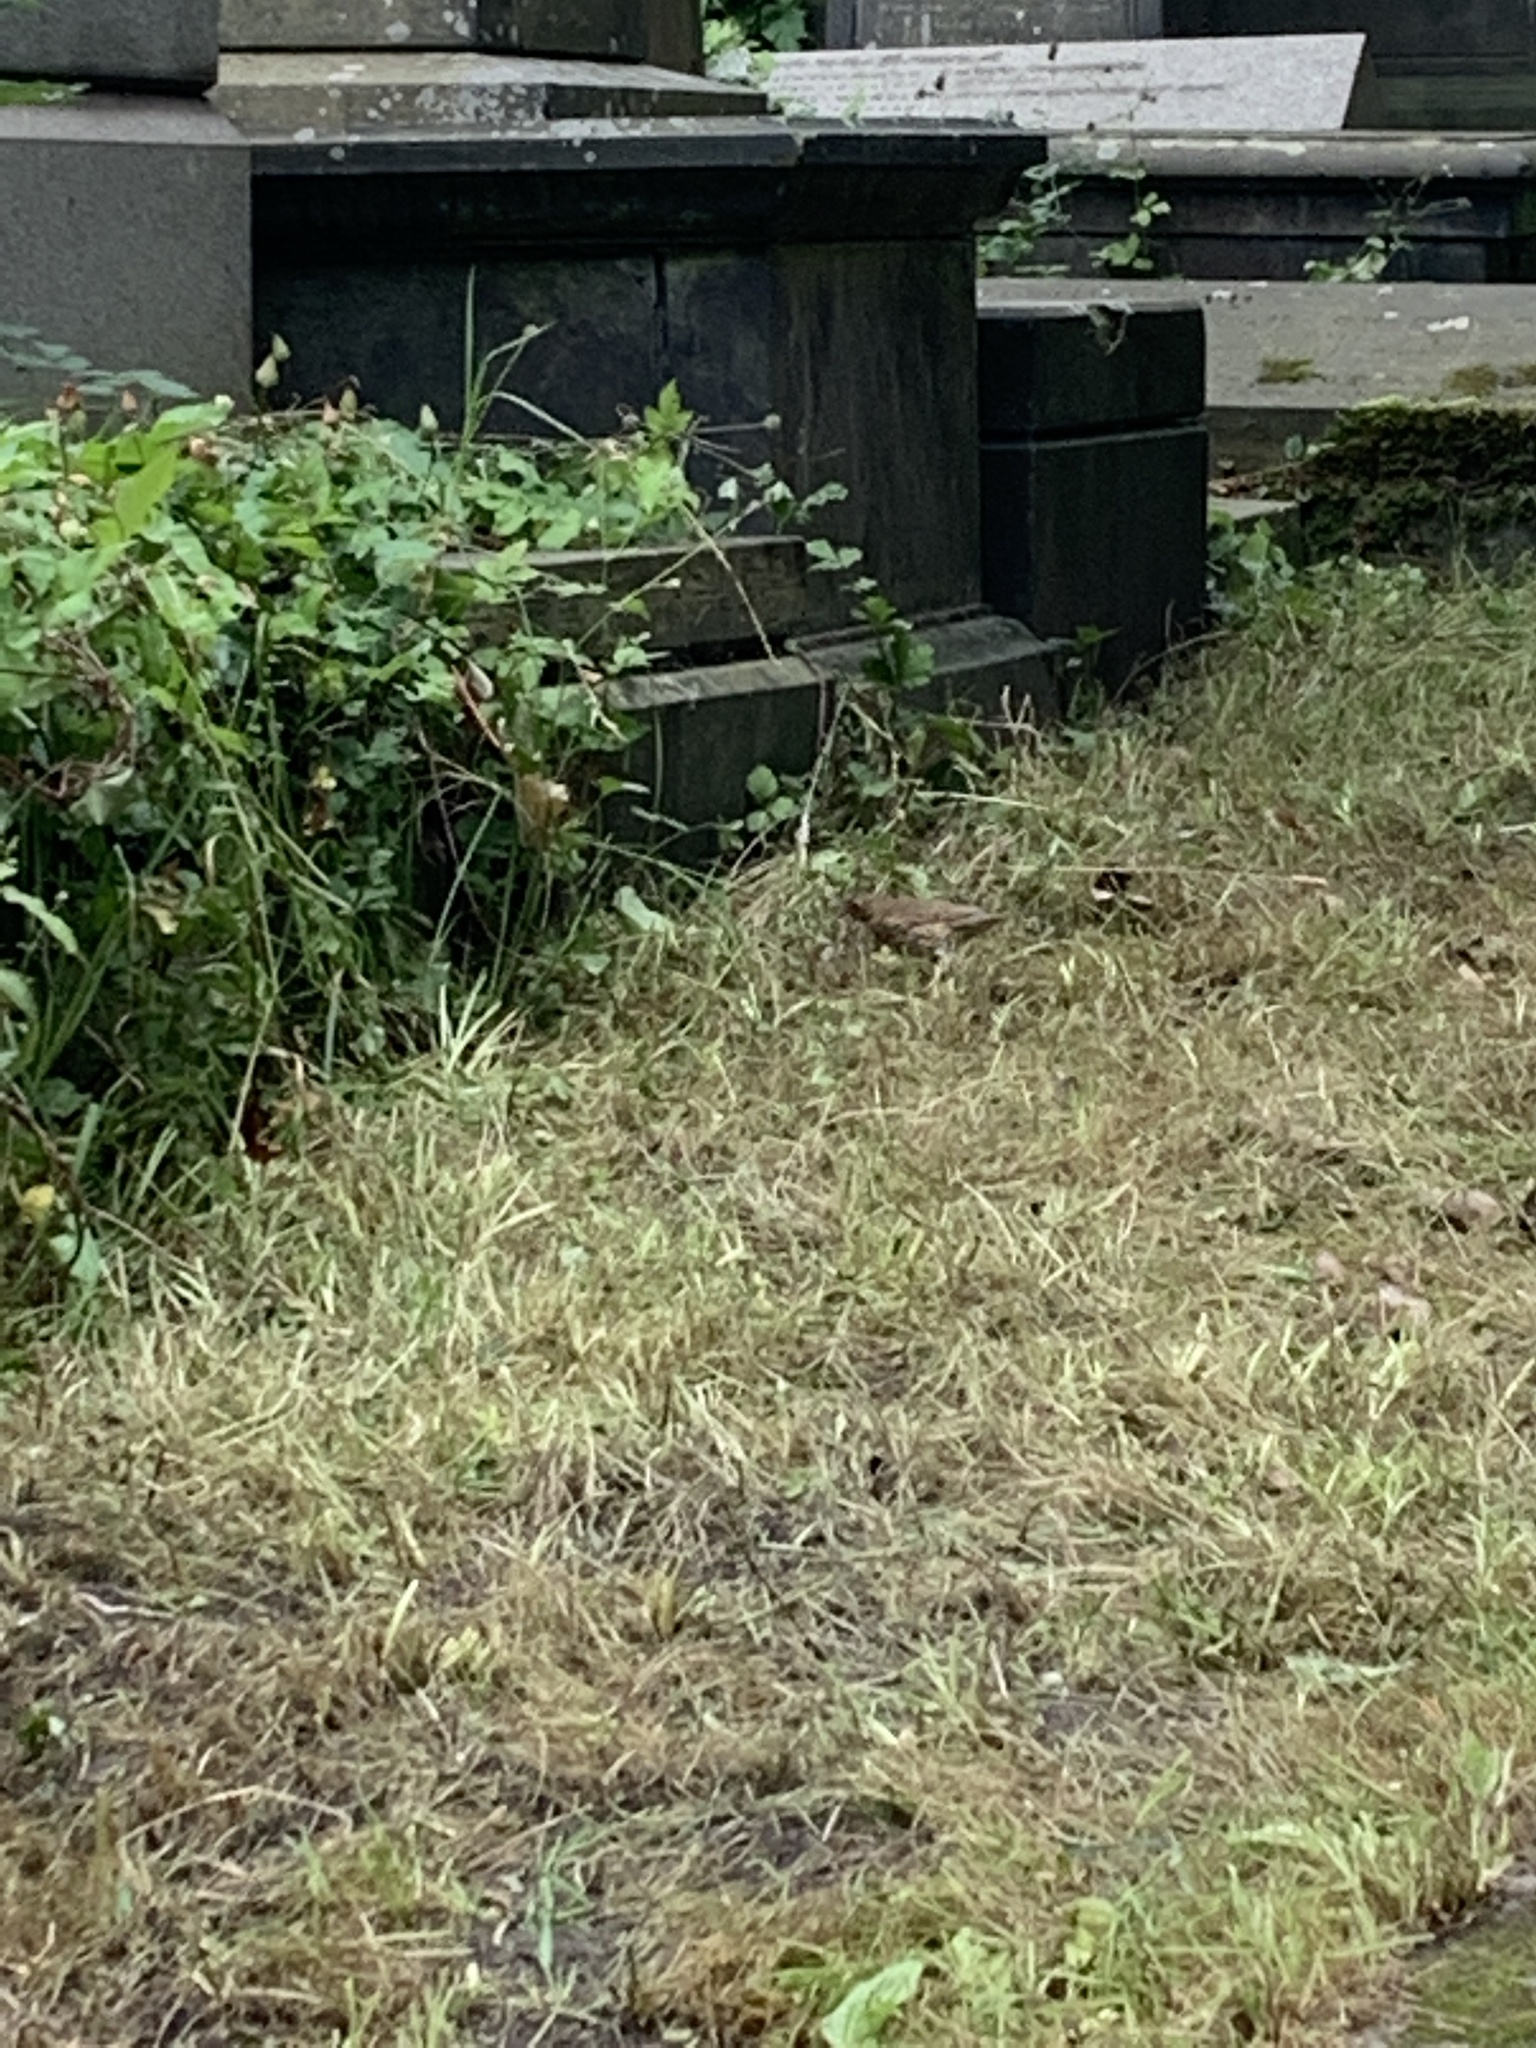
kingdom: Animalia
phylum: Chordata
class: Aves
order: Passeriformes
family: Turdidae
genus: Turdus
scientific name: Turdus philomelos
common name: Song thrush
